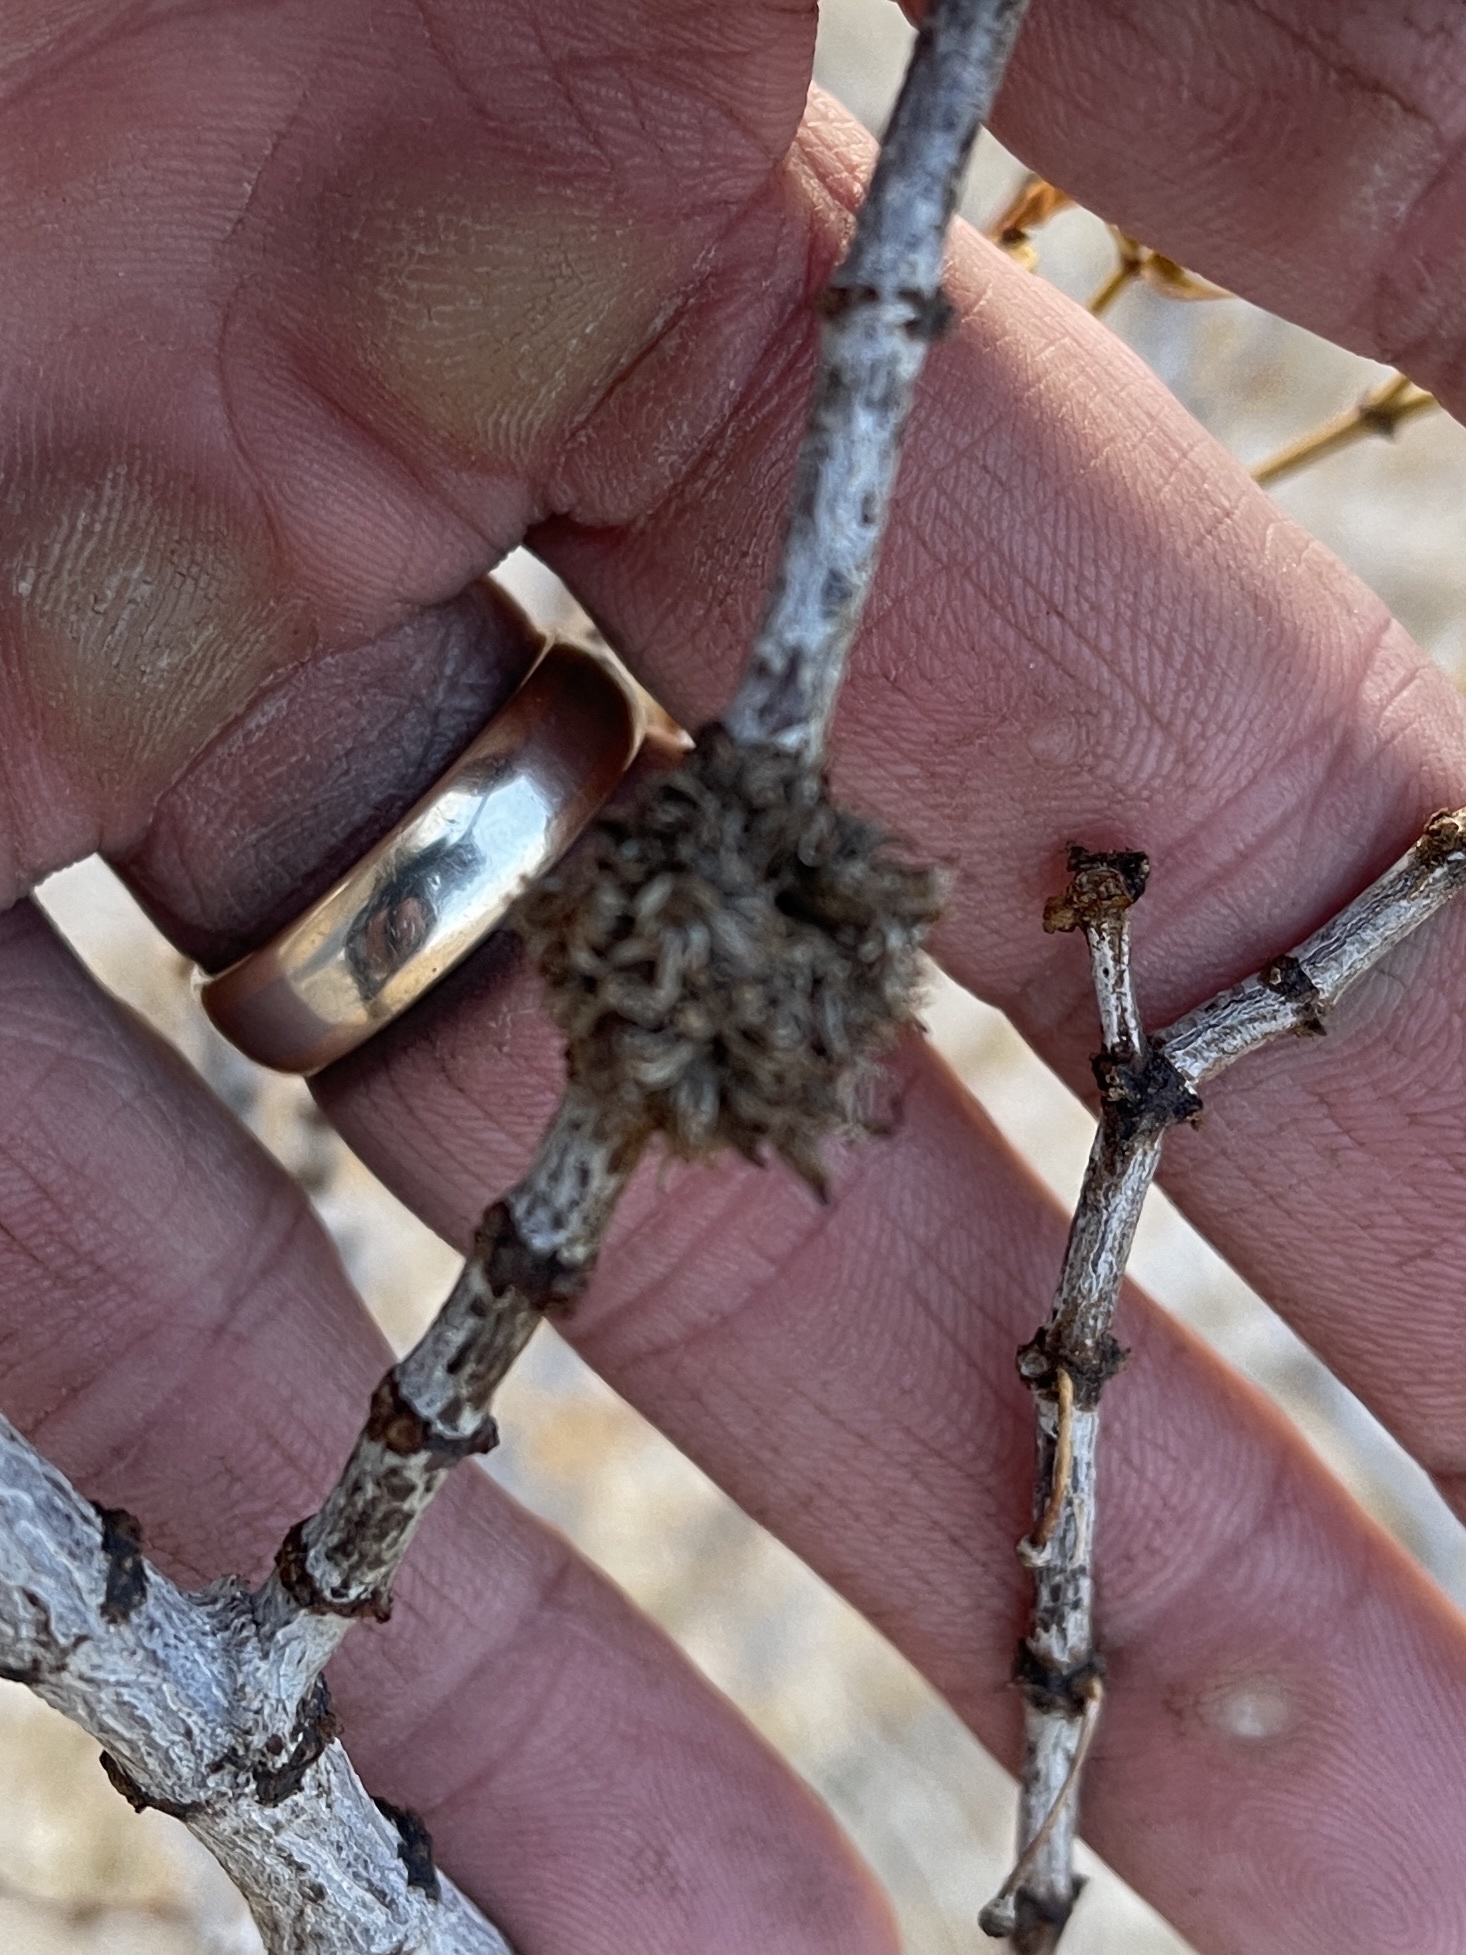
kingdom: Animalia
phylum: Arthropoda
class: Insecta
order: Diptera
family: Cecidomyiidae
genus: Asphondylia
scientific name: Asphondylia auripila
